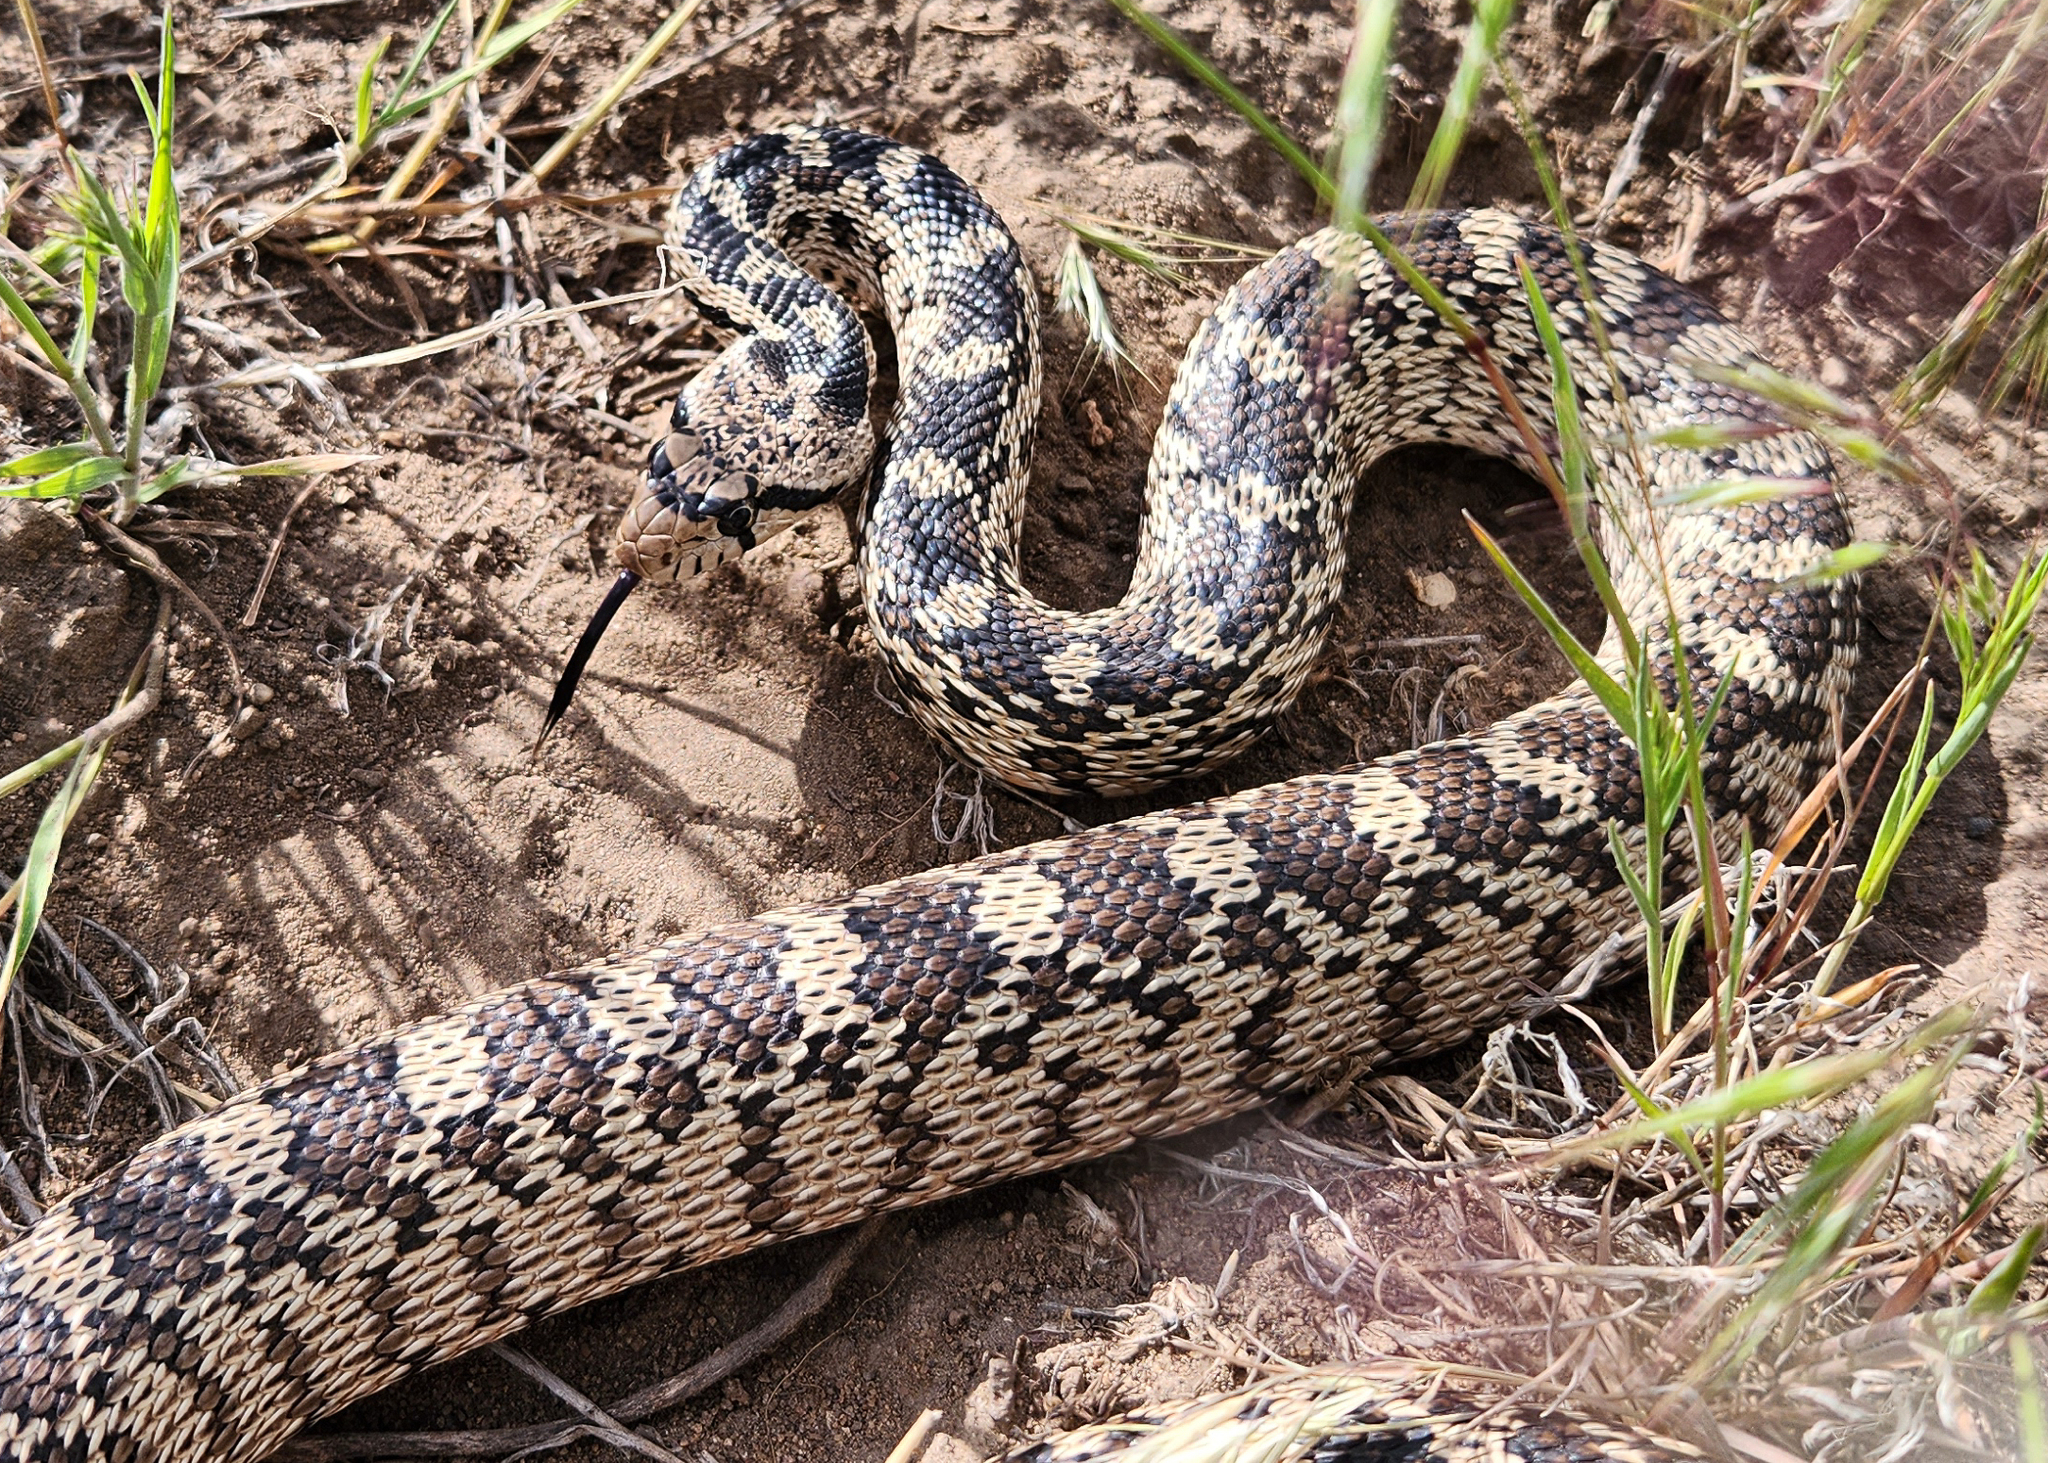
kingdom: Animalia
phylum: Chordata
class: Squamata
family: Colubridae
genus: Pituophis
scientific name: Pituophis catenifer
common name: Gopher snake
